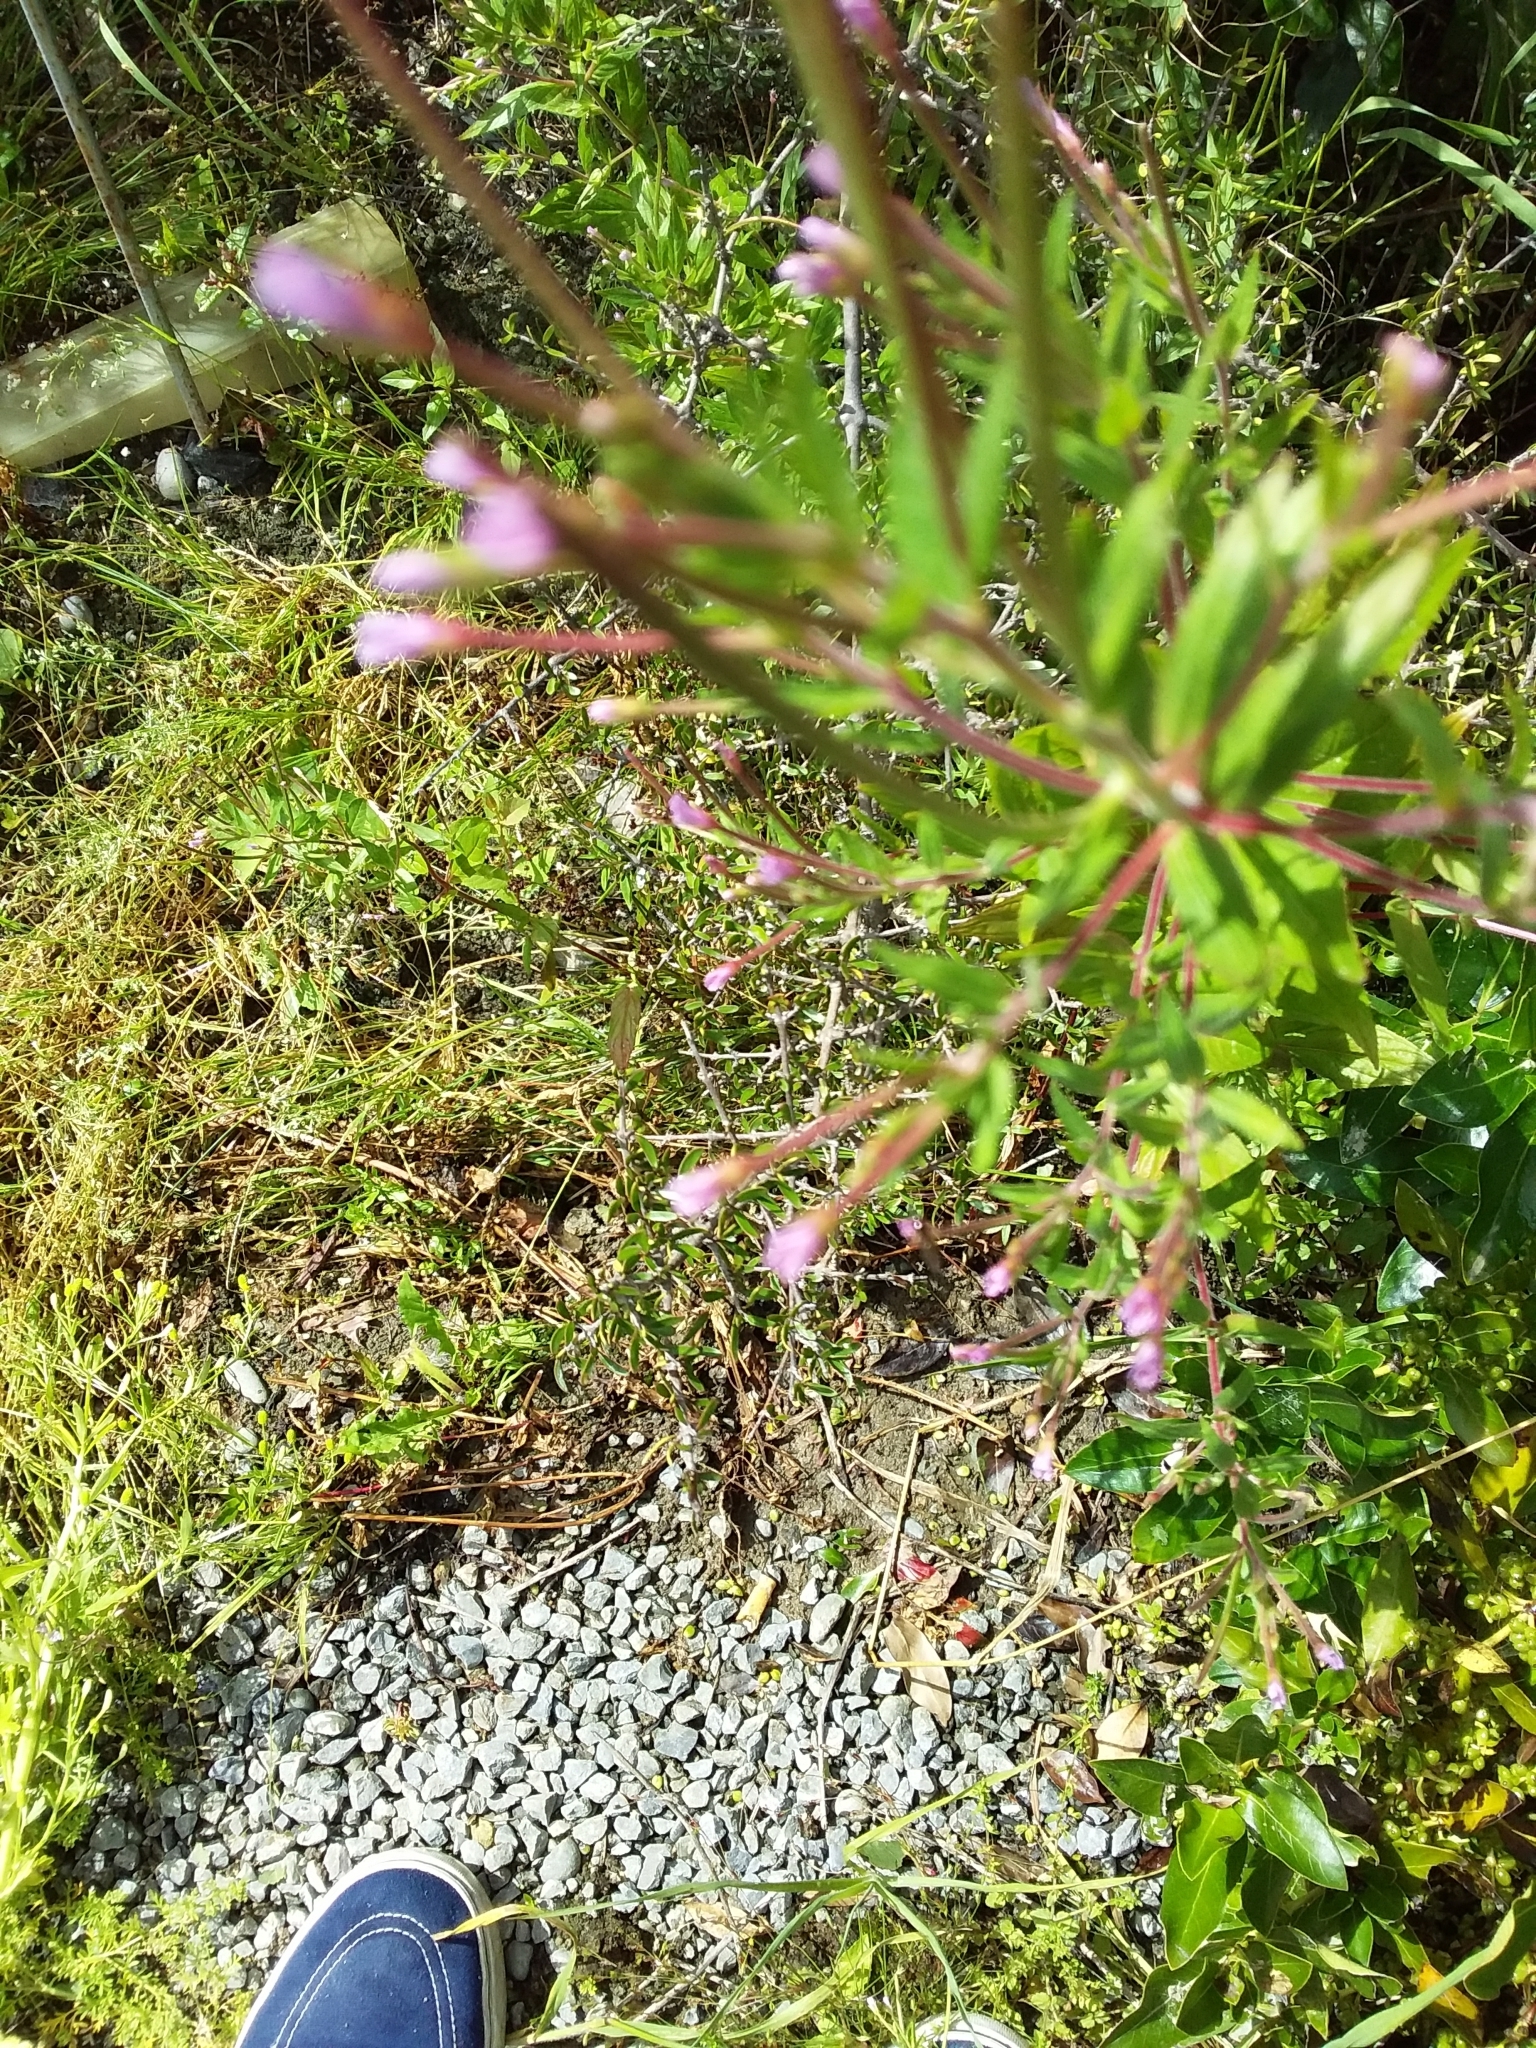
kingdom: Plantae
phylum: Tracheophyta
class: Magnoliopsida
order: Myrtales
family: Onagraceae
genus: Epilobium
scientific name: Epilobium ciliatum
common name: American willowherb
